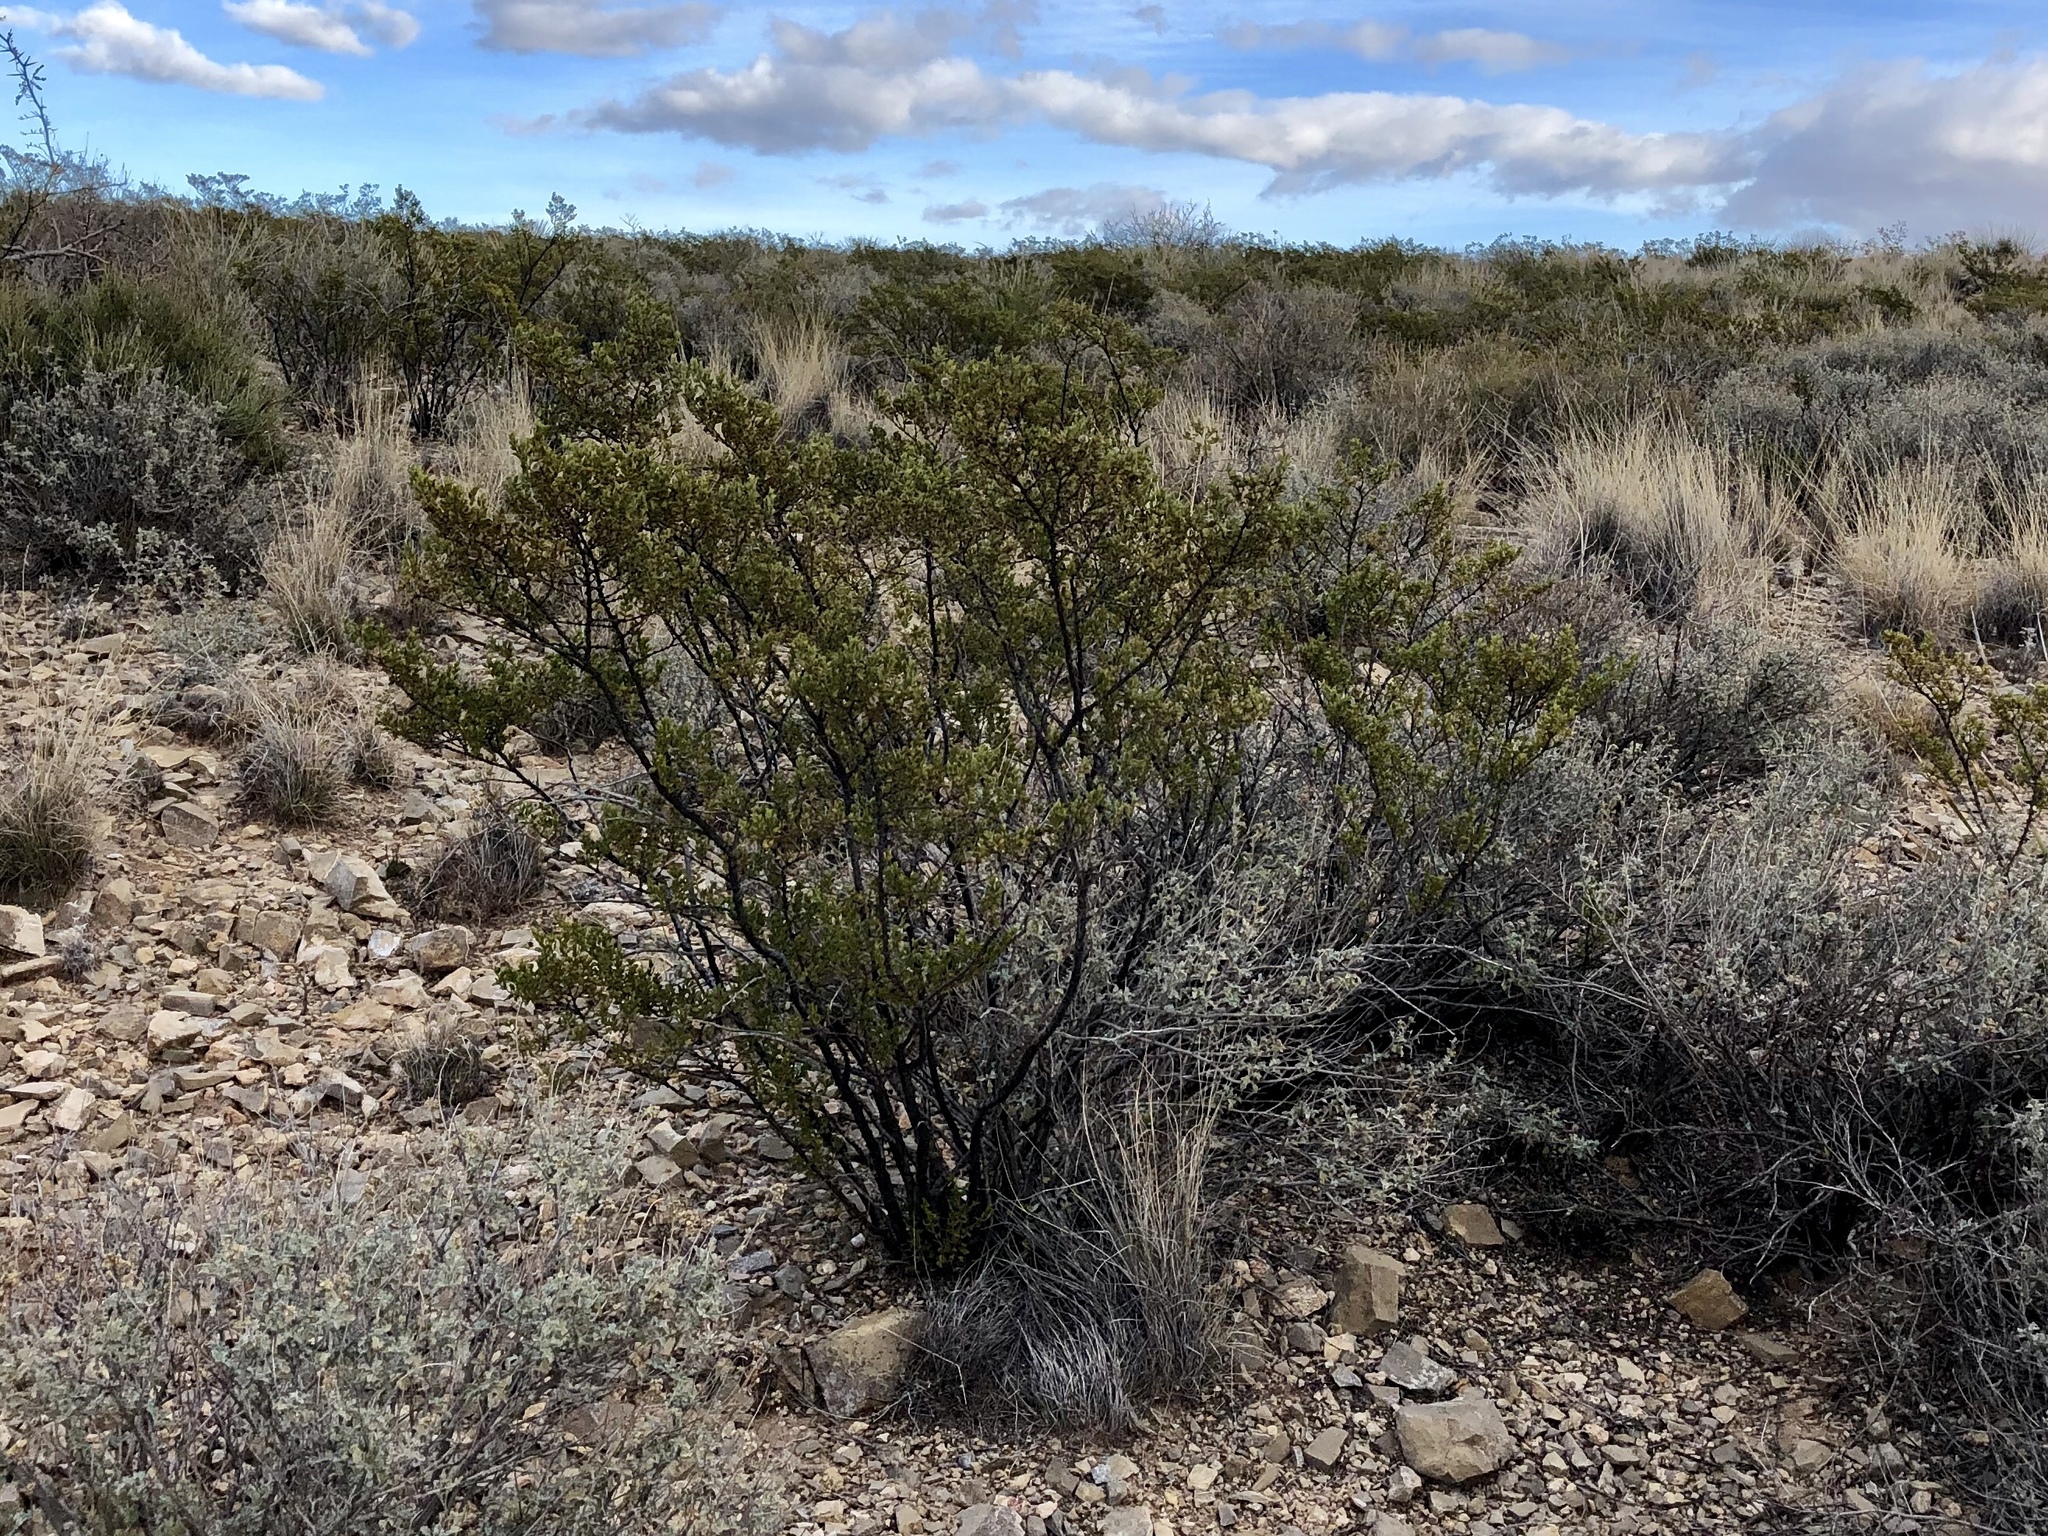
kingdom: Plantae
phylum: Tracheophyta
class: Magnoliopsida
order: Zygophyllales
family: Zygophyllaceae
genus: Larrea
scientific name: Larrea tridentata
